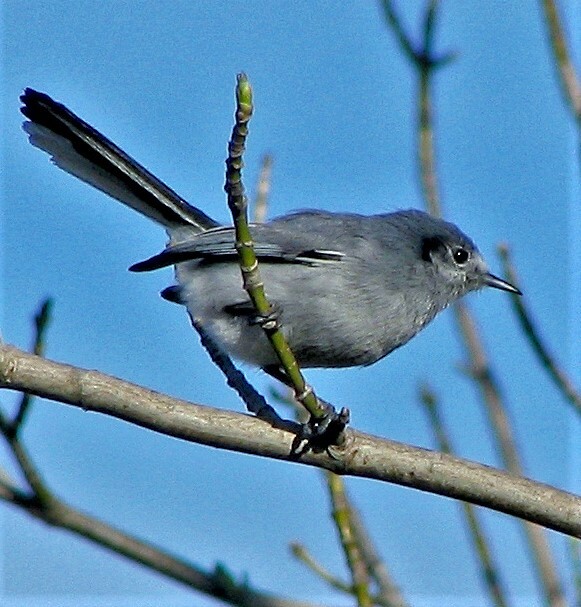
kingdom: Animalia
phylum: Chordata
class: Aves
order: Passeriformes
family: Polioptilidae
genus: Polioptila
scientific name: Polioptila dumicola
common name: Masked gnatcatcher
